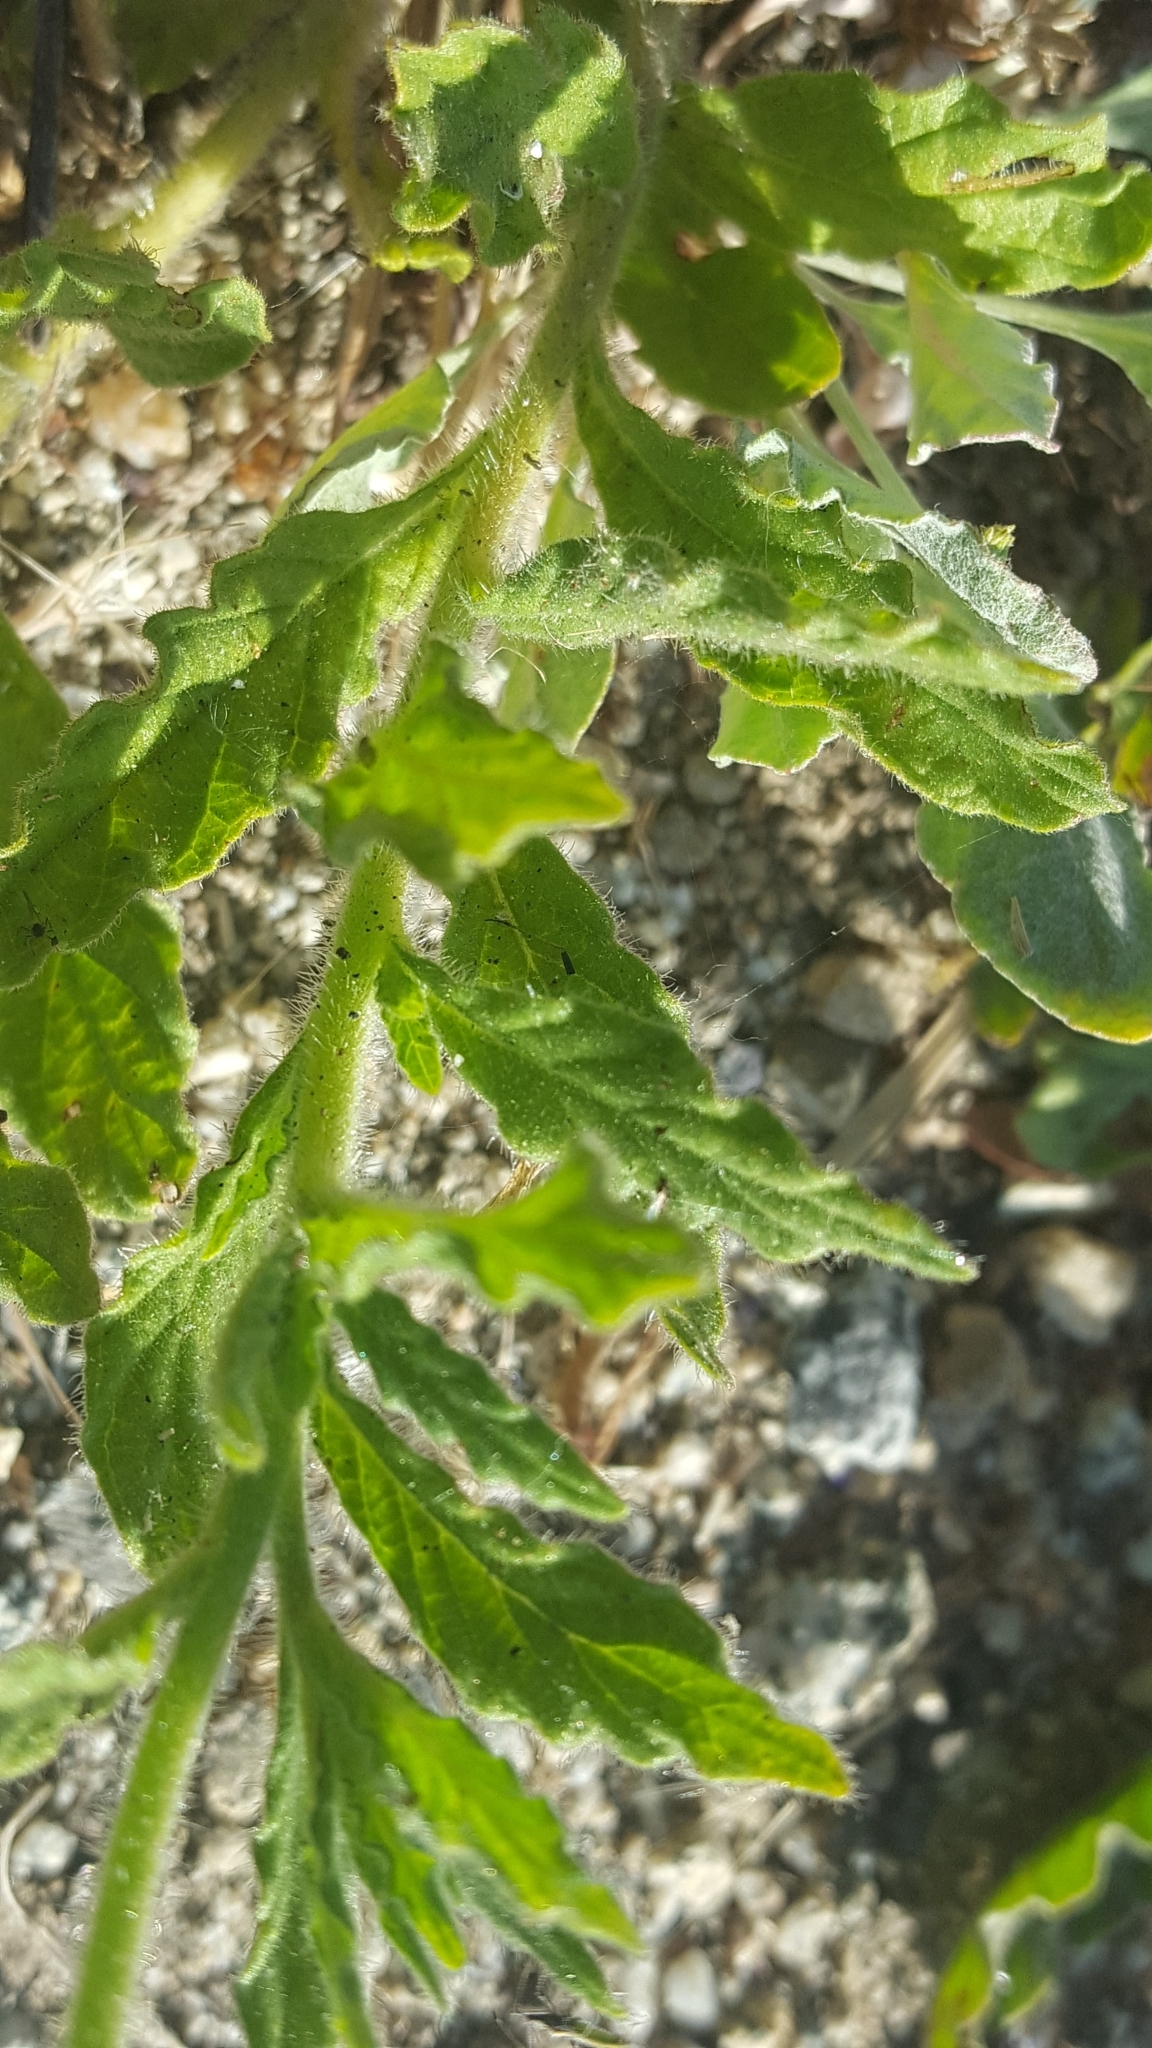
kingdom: Plantae
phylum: Tracheophyta
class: Magnoliopsida
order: Boraginales
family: Heliotropiaceae
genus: Heliotropium
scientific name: Heliotropium amplexicaule
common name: Clasping heliotrope
